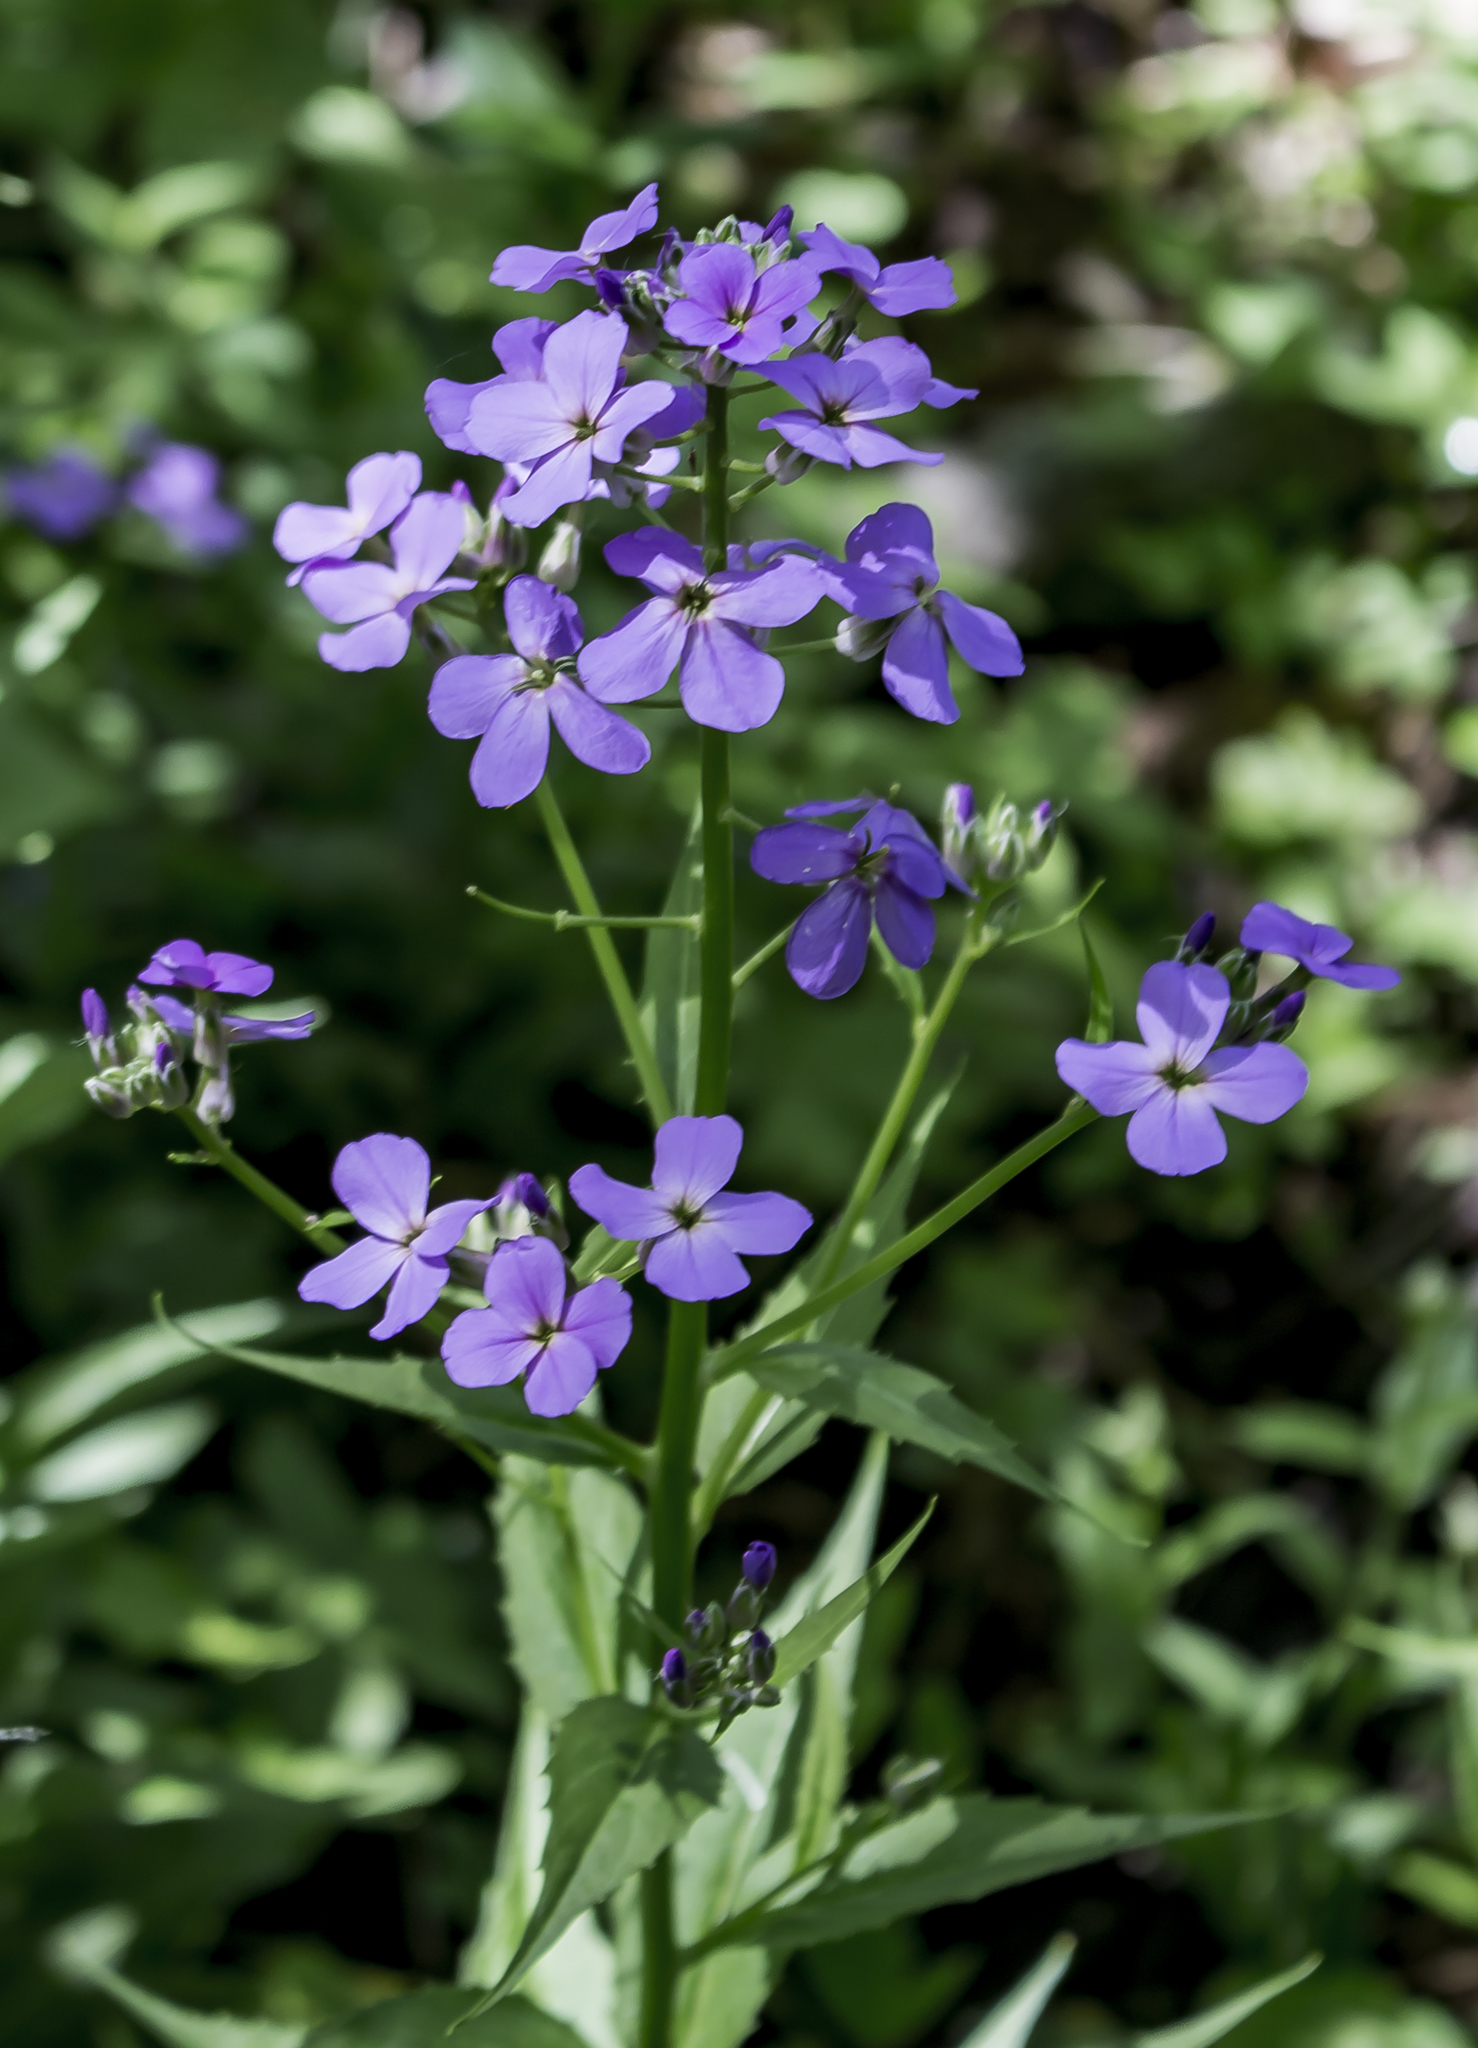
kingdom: Plantae
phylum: Tracheophyta
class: Magnoliopsida
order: Brassicales
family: Brassicaceae
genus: Hesperis
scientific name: Hesperis matronalis
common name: Dame's-violet
